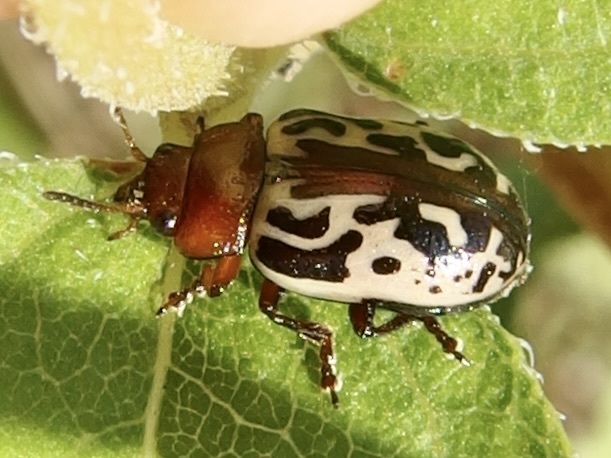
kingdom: Animalia
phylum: Arthropoda
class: Insecta
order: Coleoptera
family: Chrysomelidae
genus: Calligrapha
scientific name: Calligrapha
